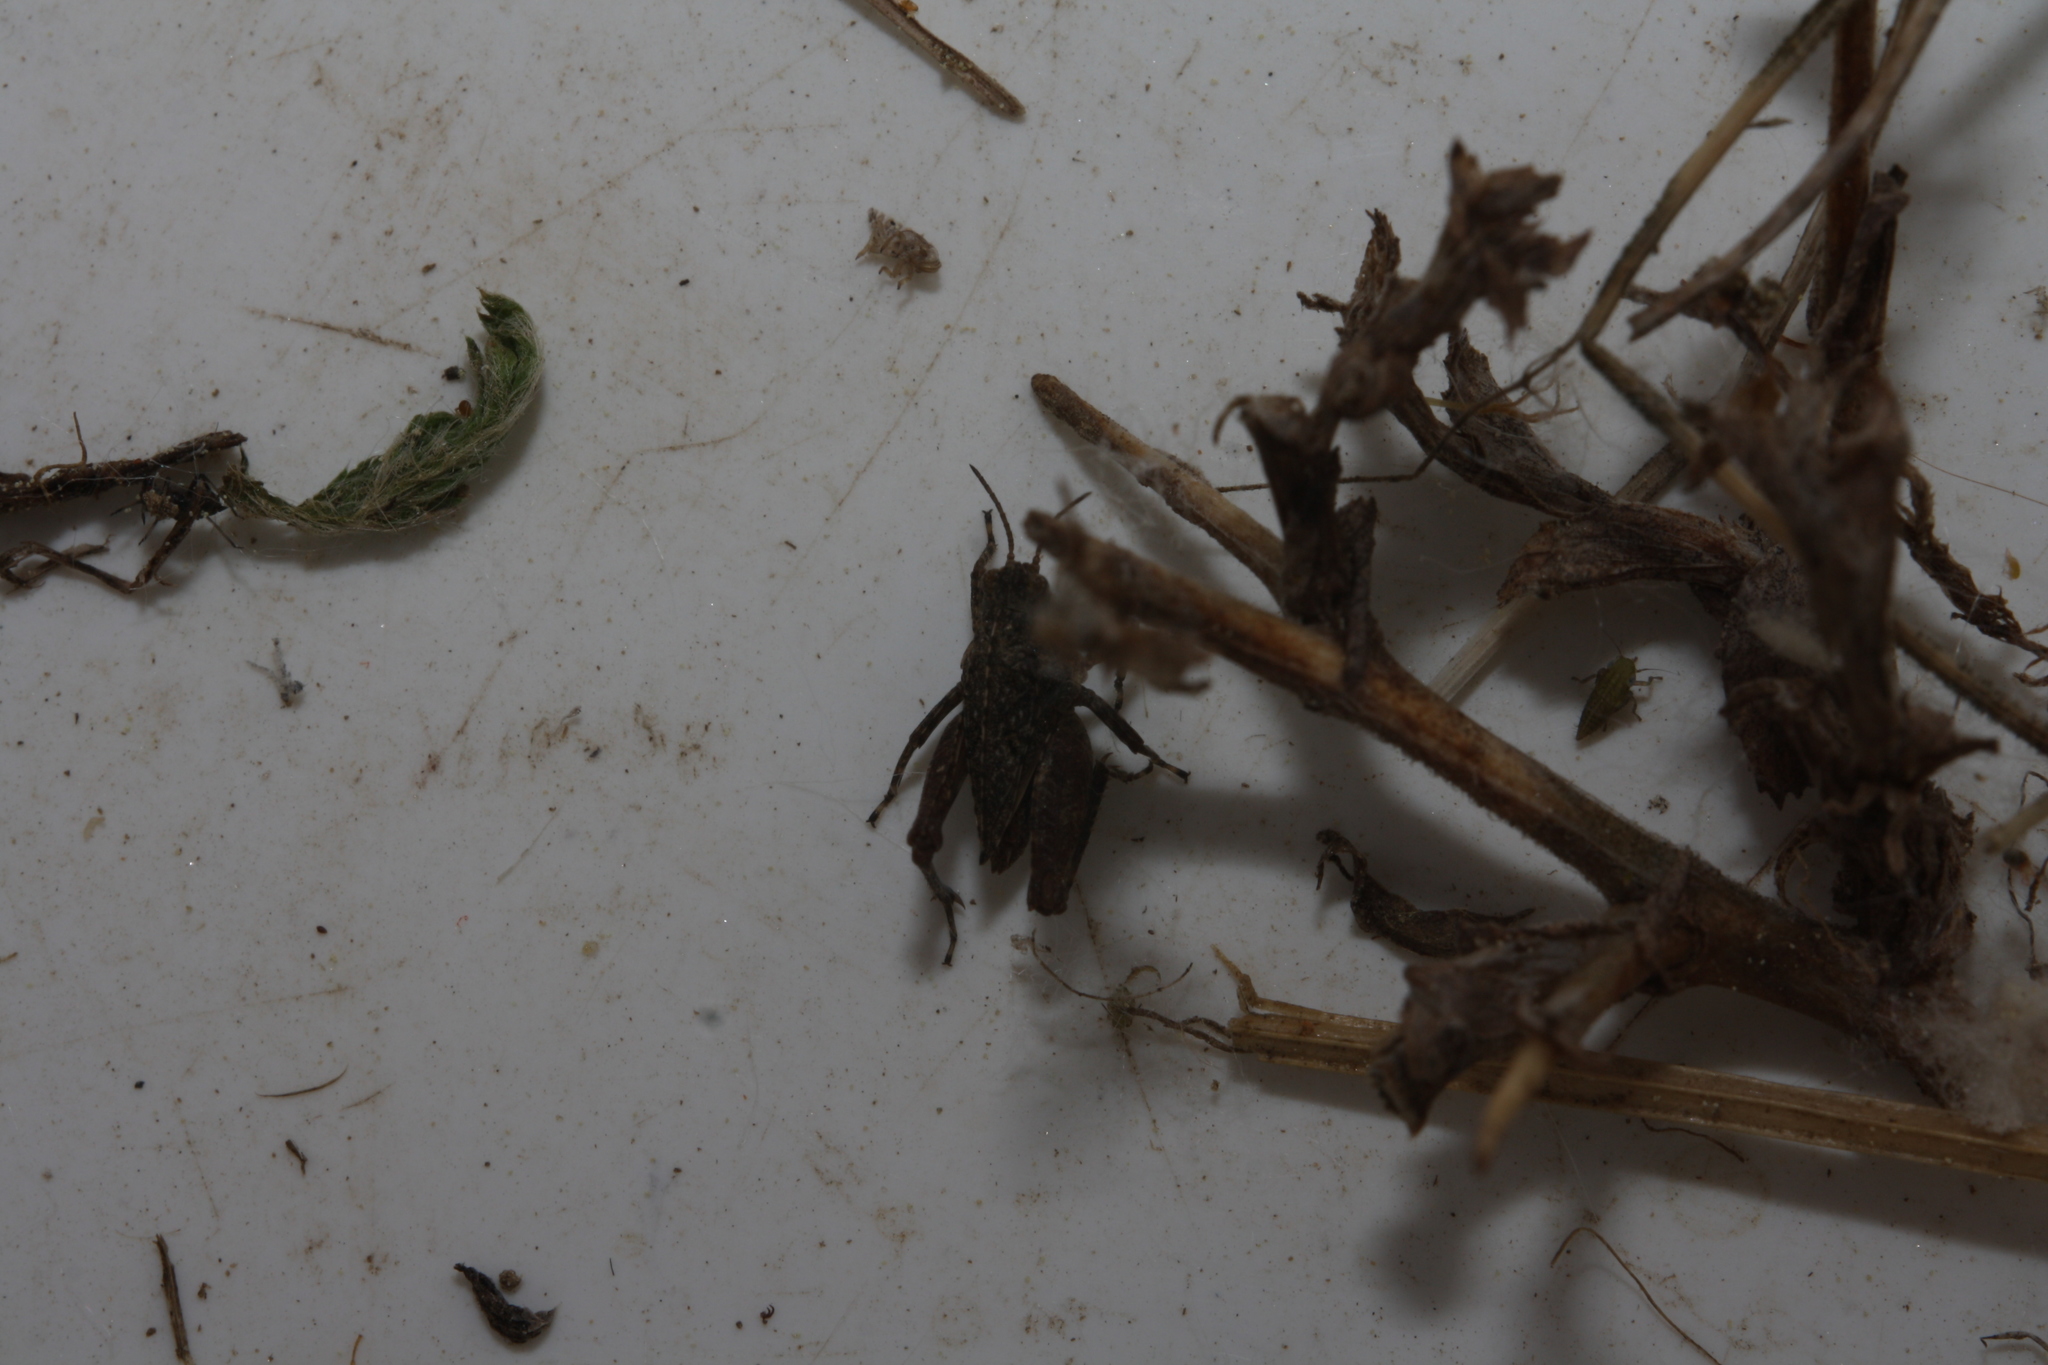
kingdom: Animalia
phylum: Arthropoda
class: Insecta
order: Orthoptera
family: Tetrigidae
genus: Tetrix
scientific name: Tetrix tenuicornis
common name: Long-horned groundhopper
